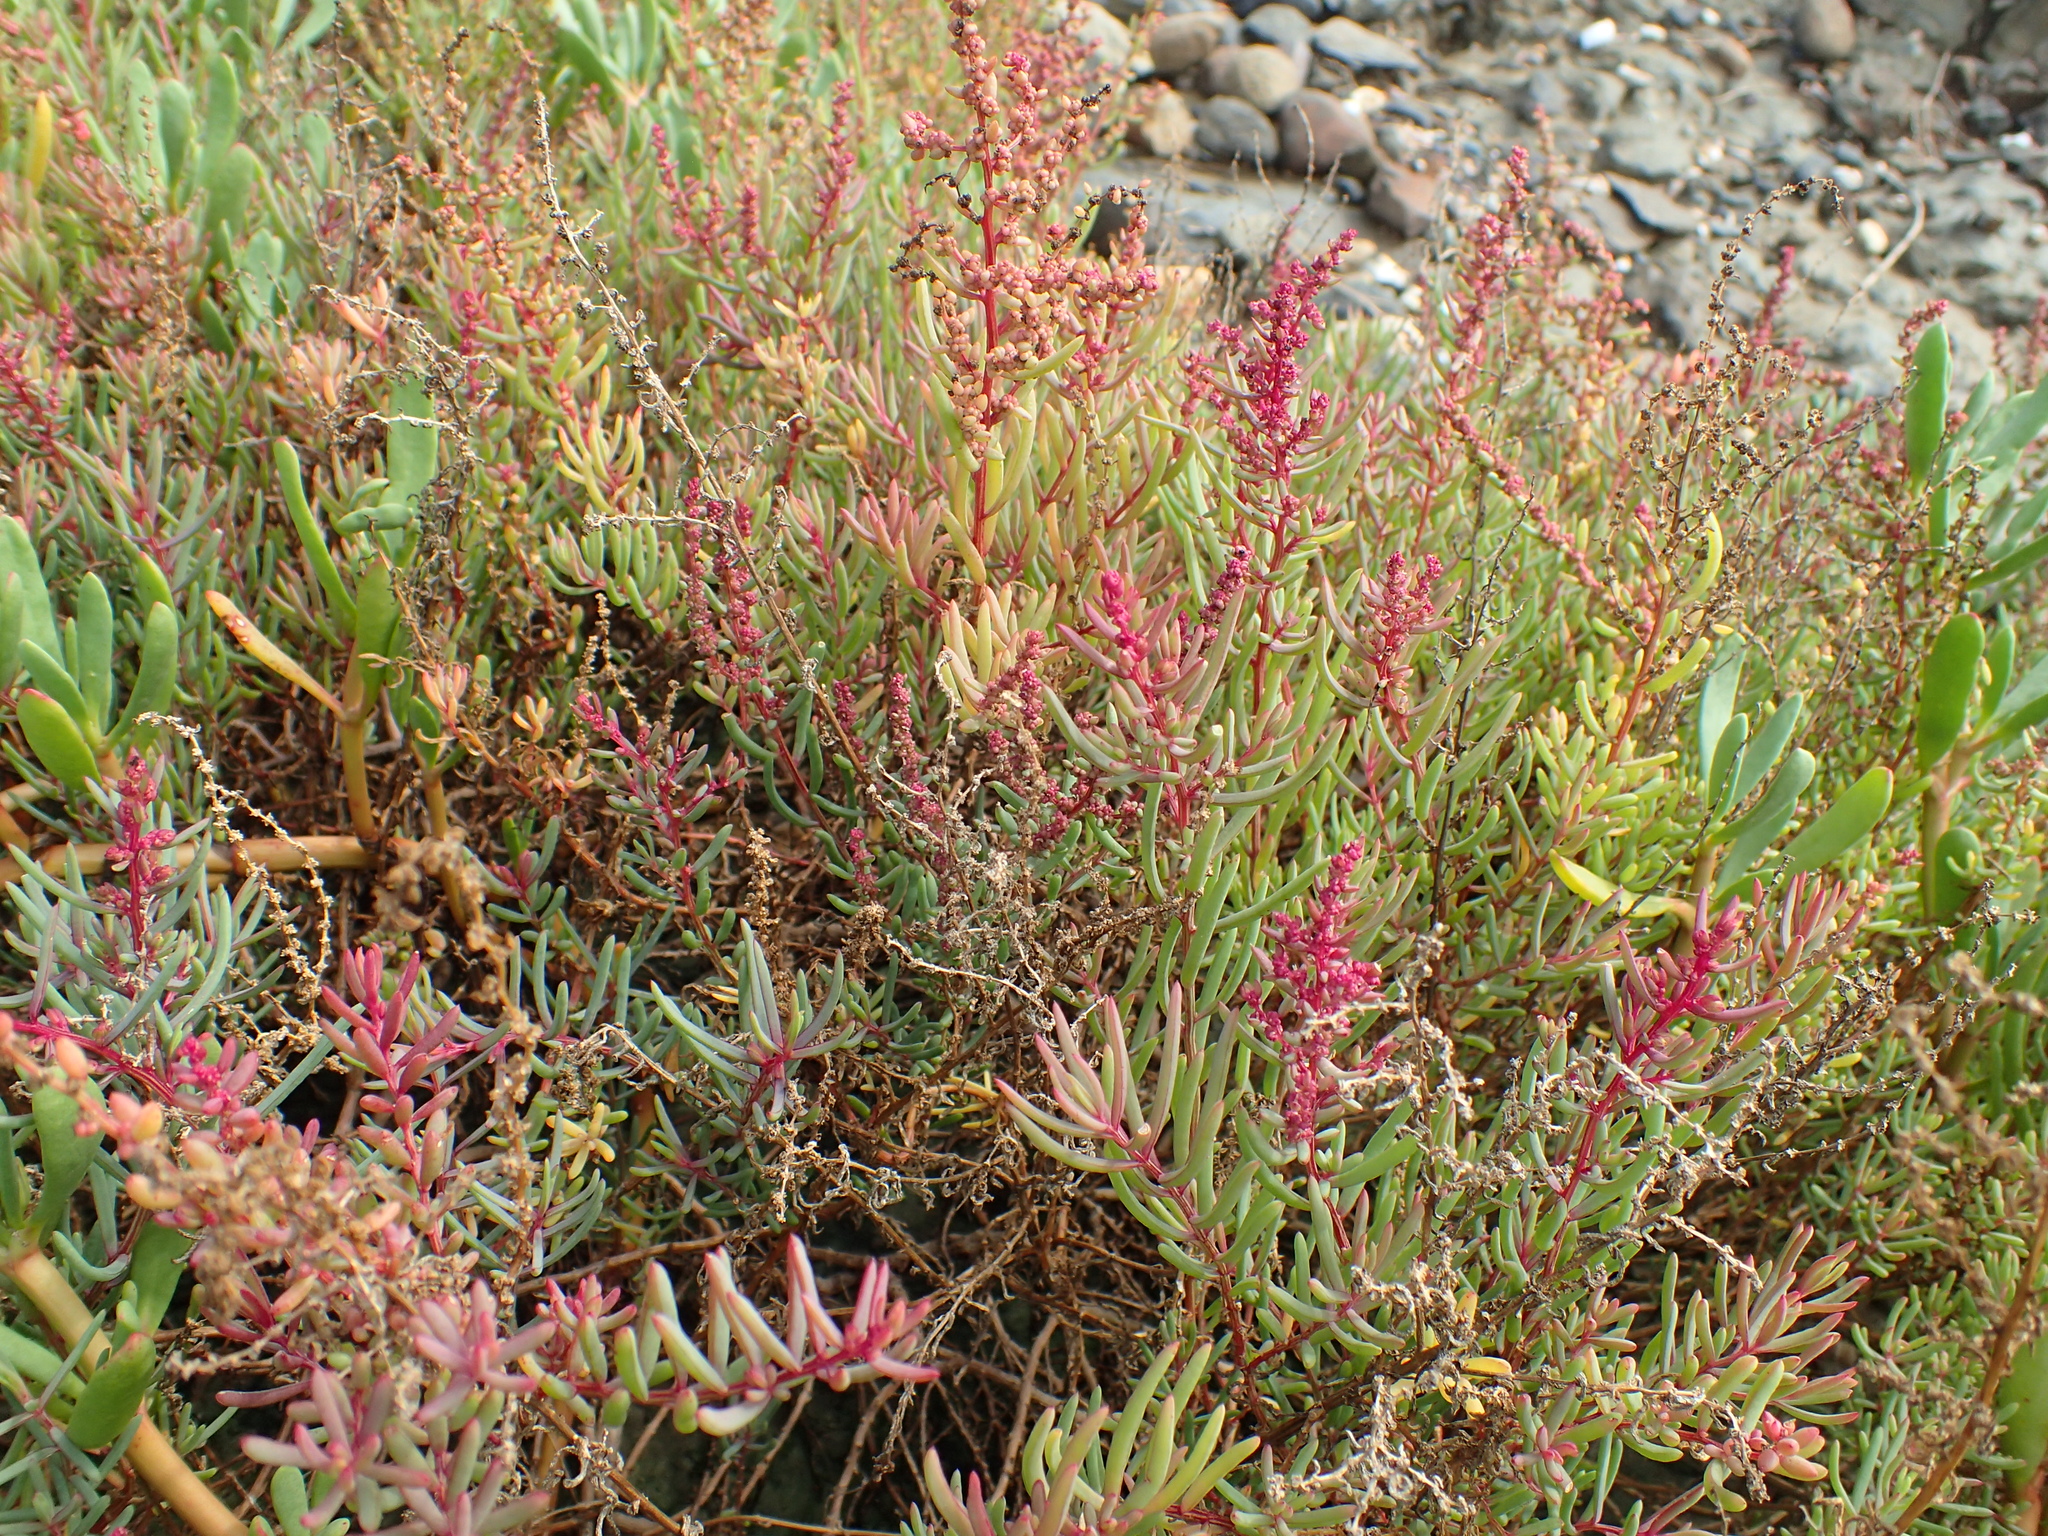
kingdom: Plantae
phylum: Tracheophyta
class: Magnoliopsida
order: Caryophyllales
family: Amaranthaceae
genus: Suaeda
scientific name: Suaeda maritima
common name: Annual sea-blite
